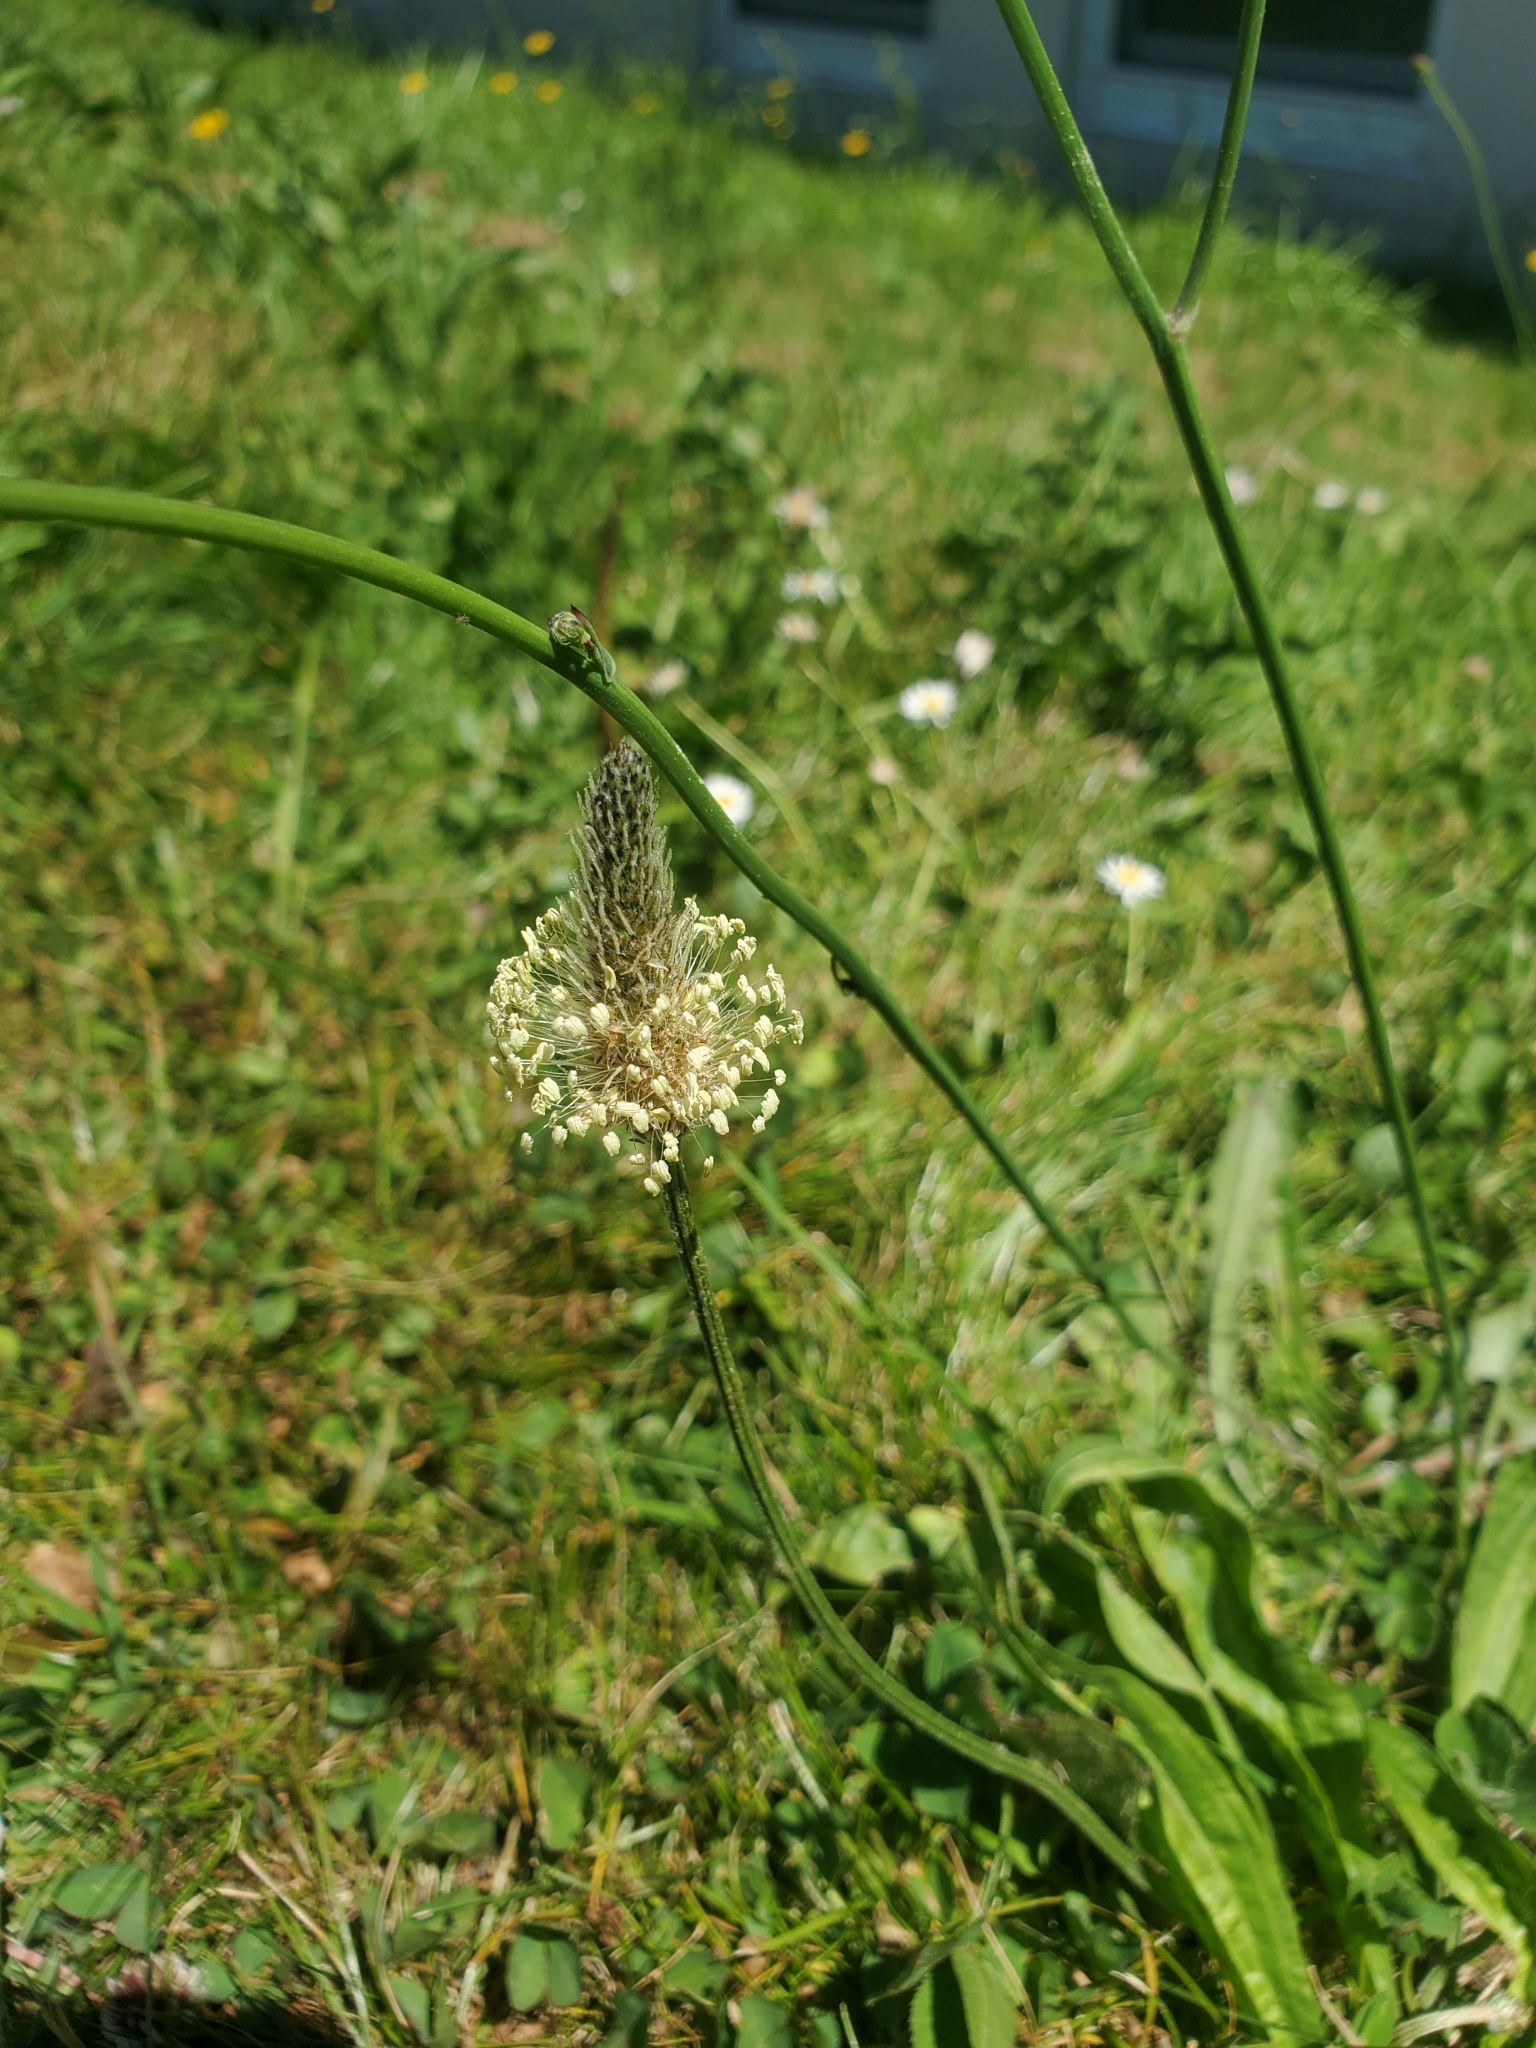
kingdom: Plantae
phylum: Tracheophyta
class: Magnoliopsida
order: Lamiales
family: Plantaginaceae
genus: Plantago
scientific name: Plantago lanceolata
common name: Ribwort plantain
